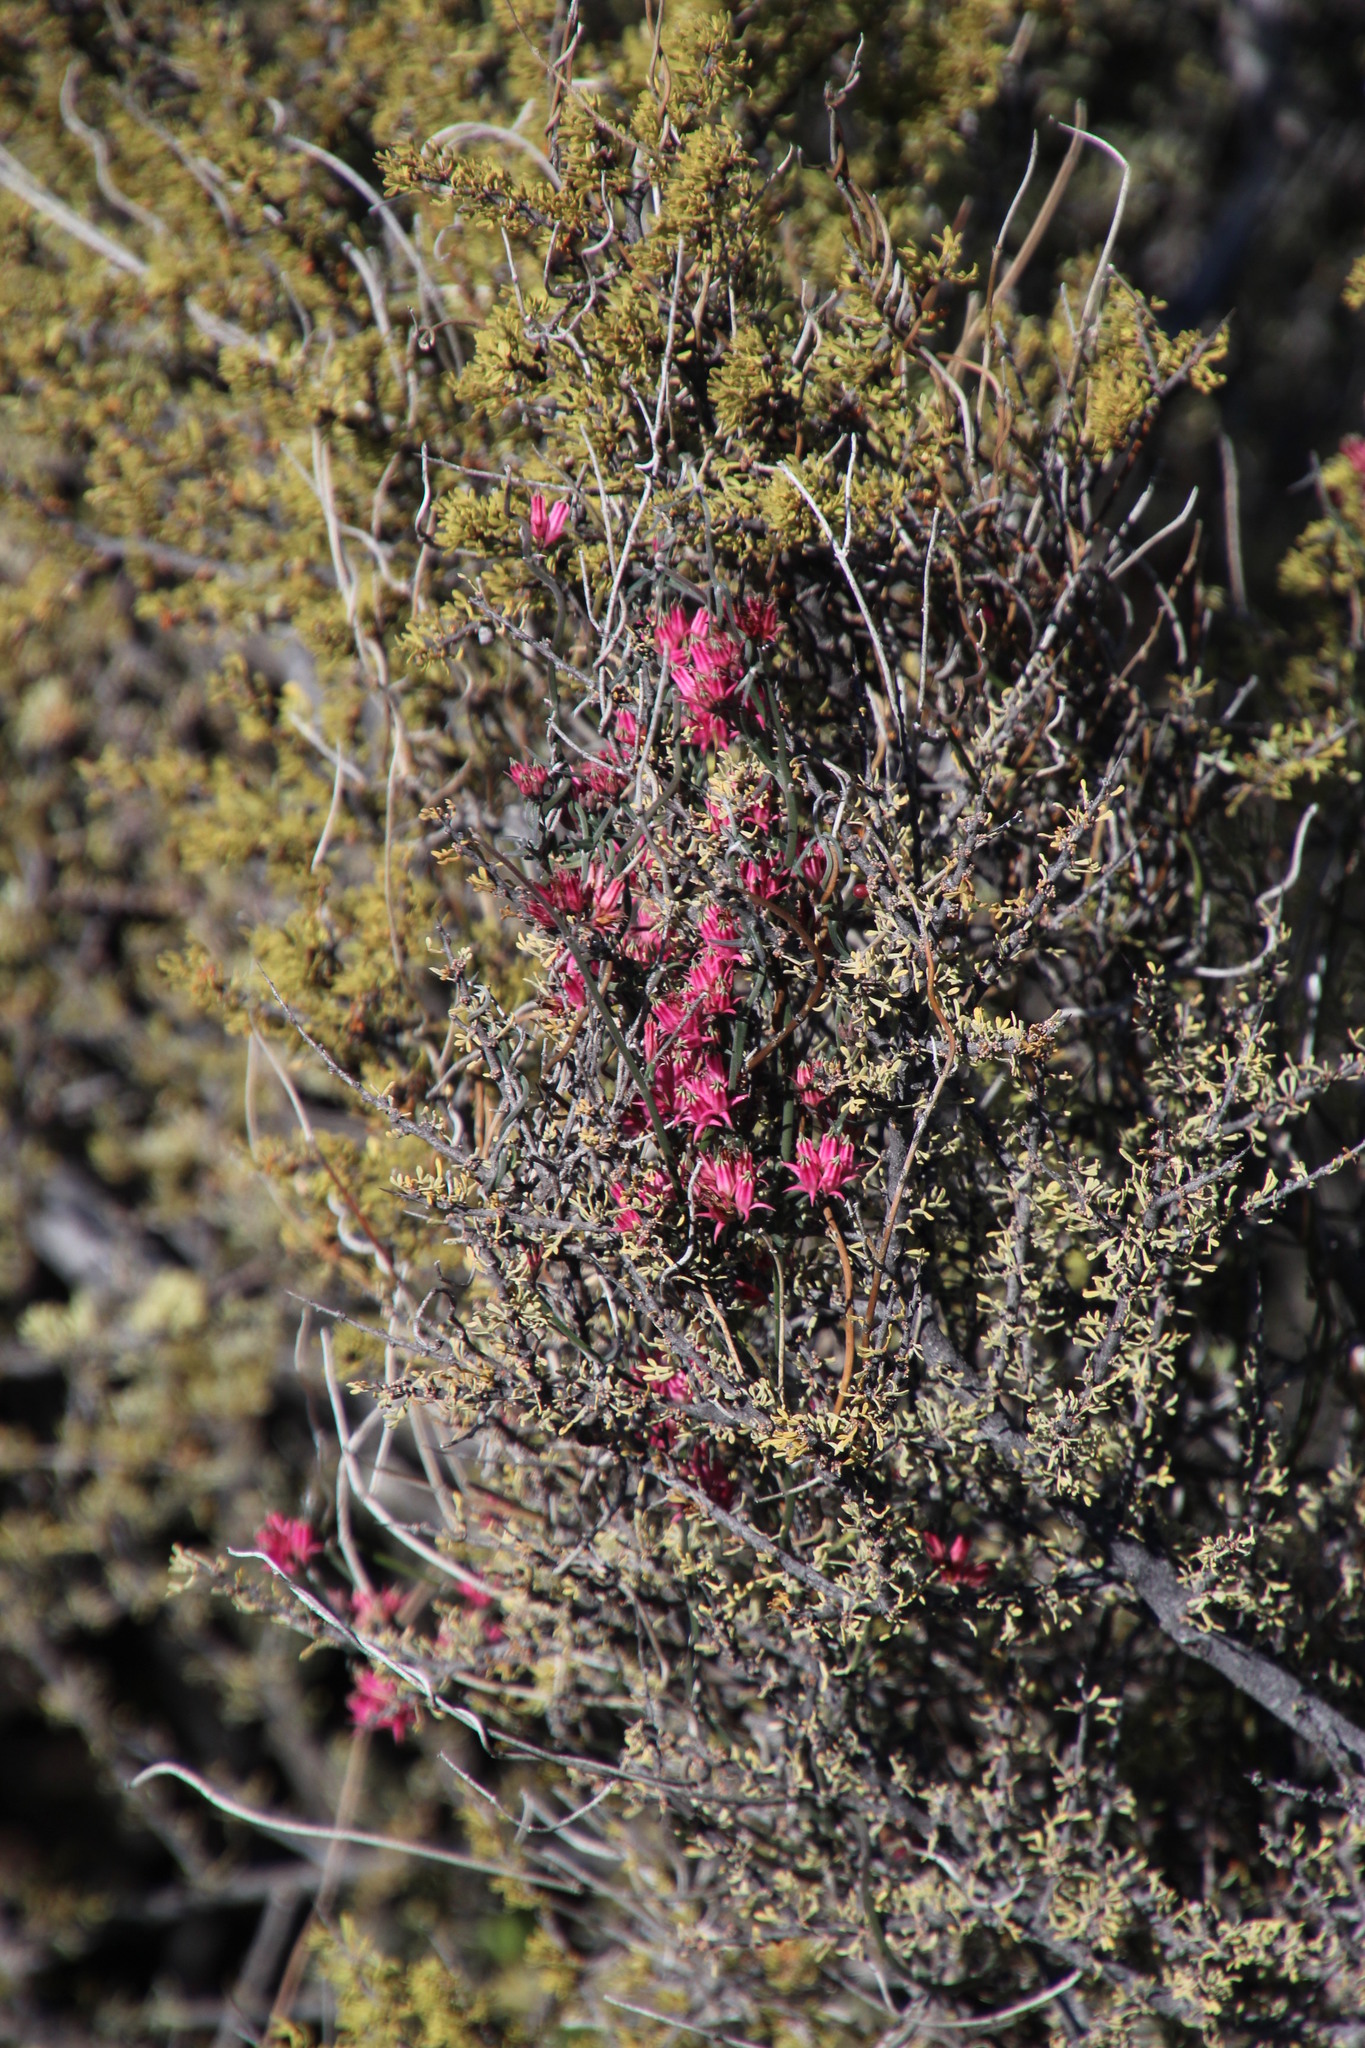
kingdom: Plantae
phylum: Tracheophyta
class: Magnoliopsida
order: Gentianales
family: Apocynaceae
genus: Microloma
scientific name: Microloma sagittatum
